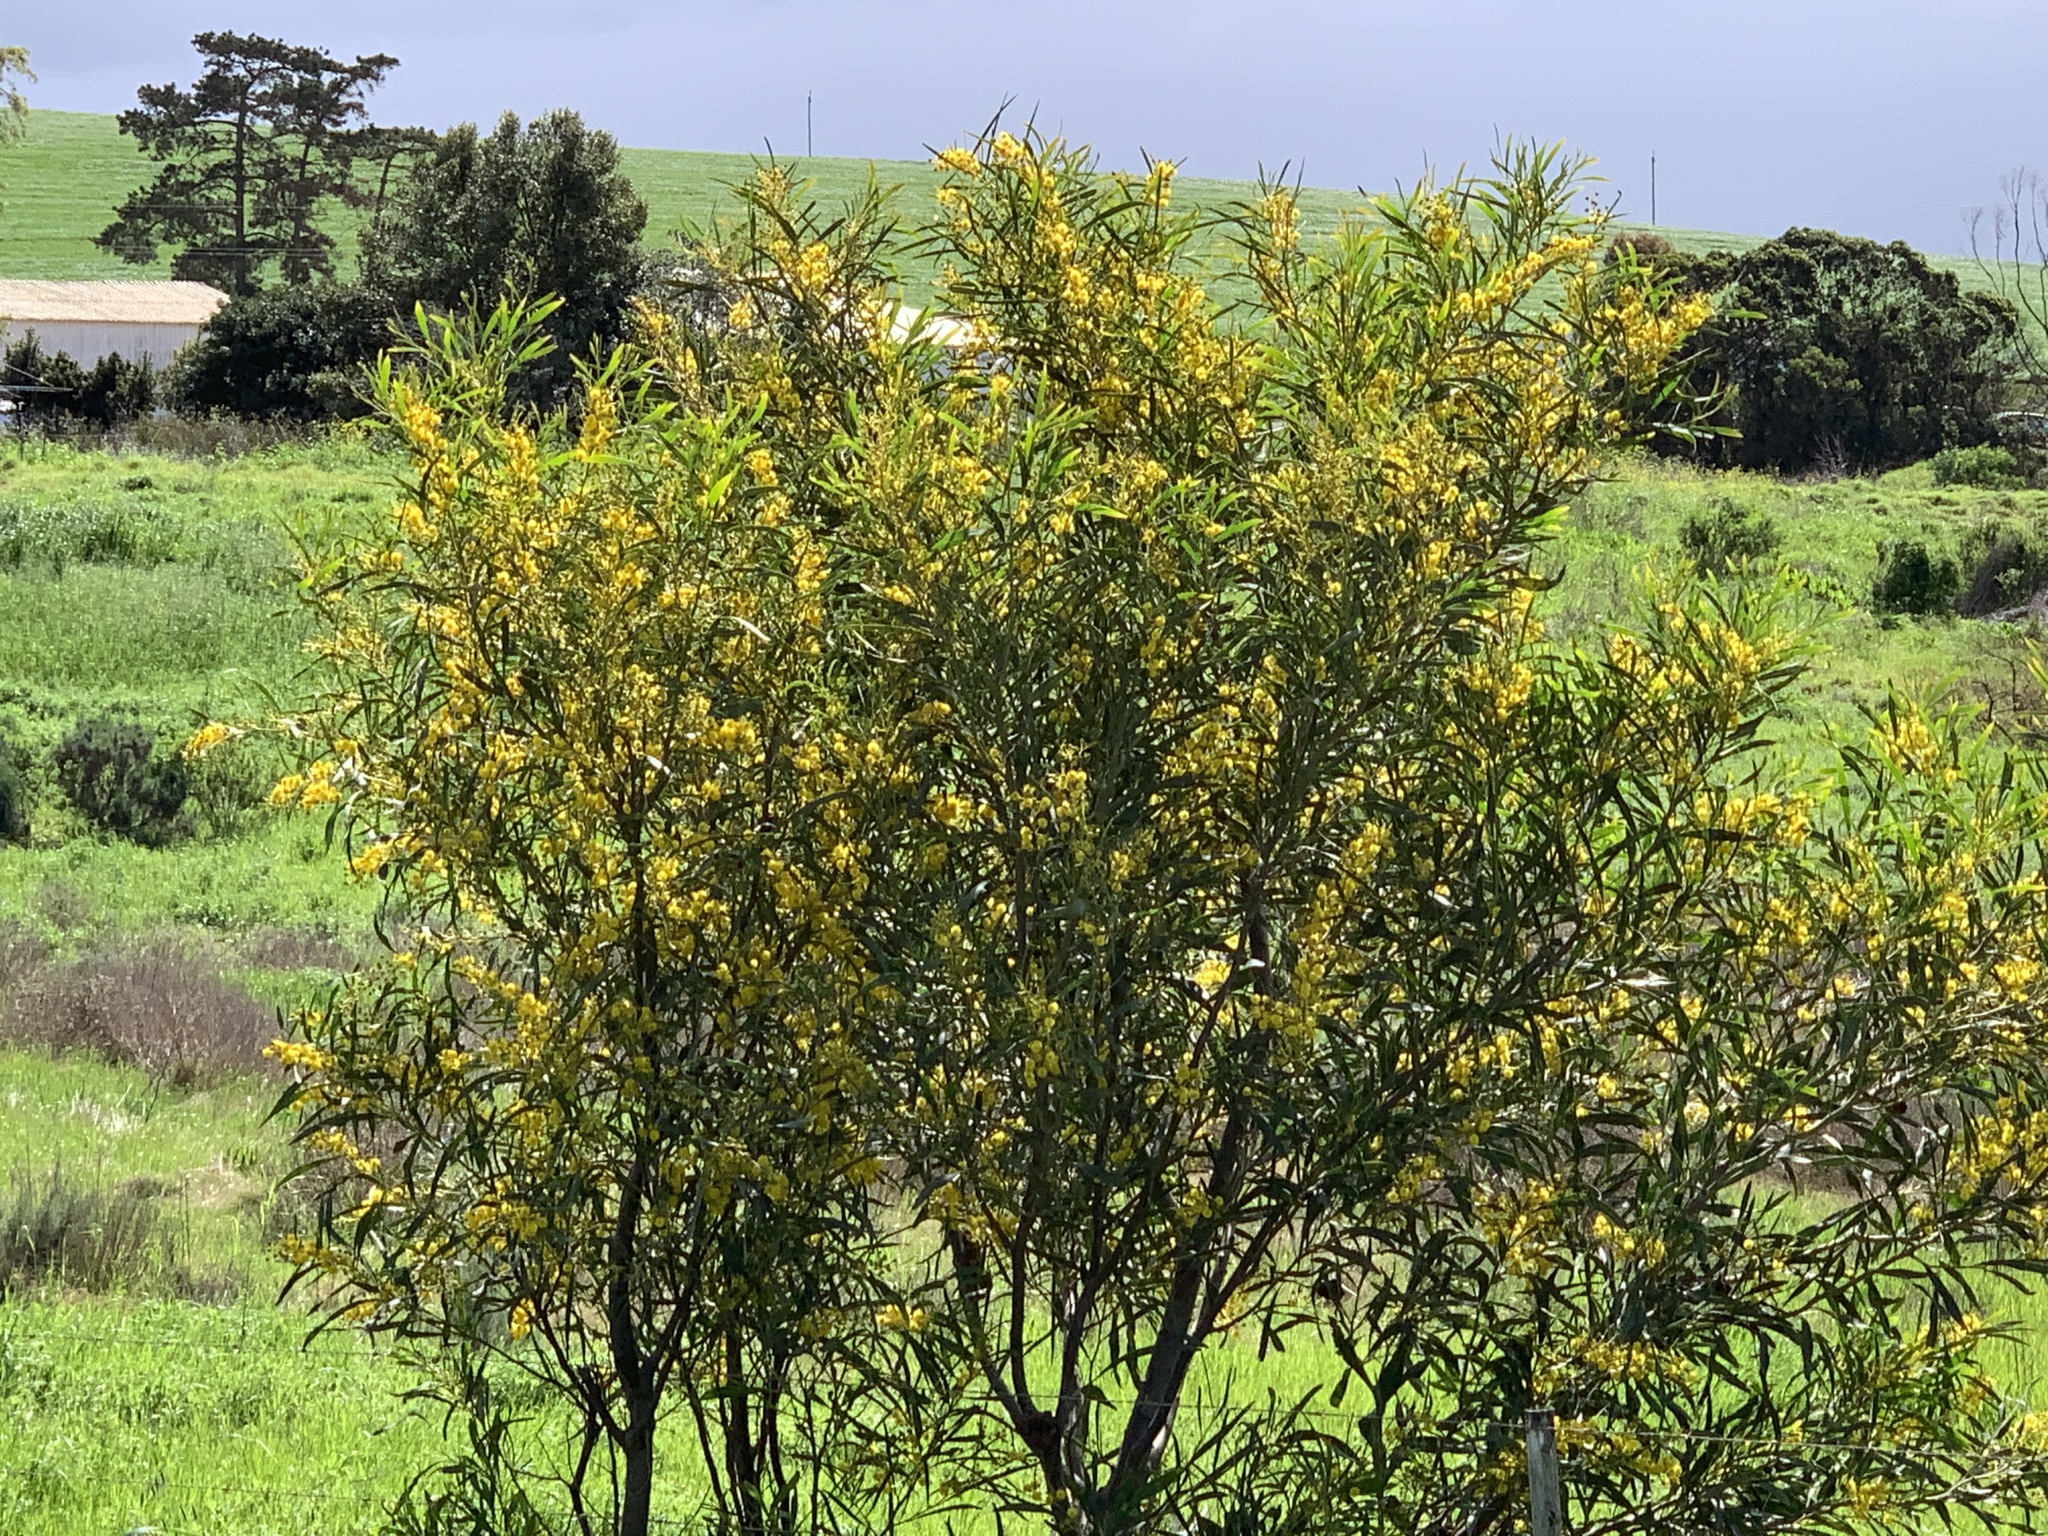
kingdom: Plantae
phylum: Tracheophyta
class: Magnoliopsida
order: Fabales
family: Fabaceae
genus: Acacia
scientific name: Acacia saligna
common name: Orange wattle
